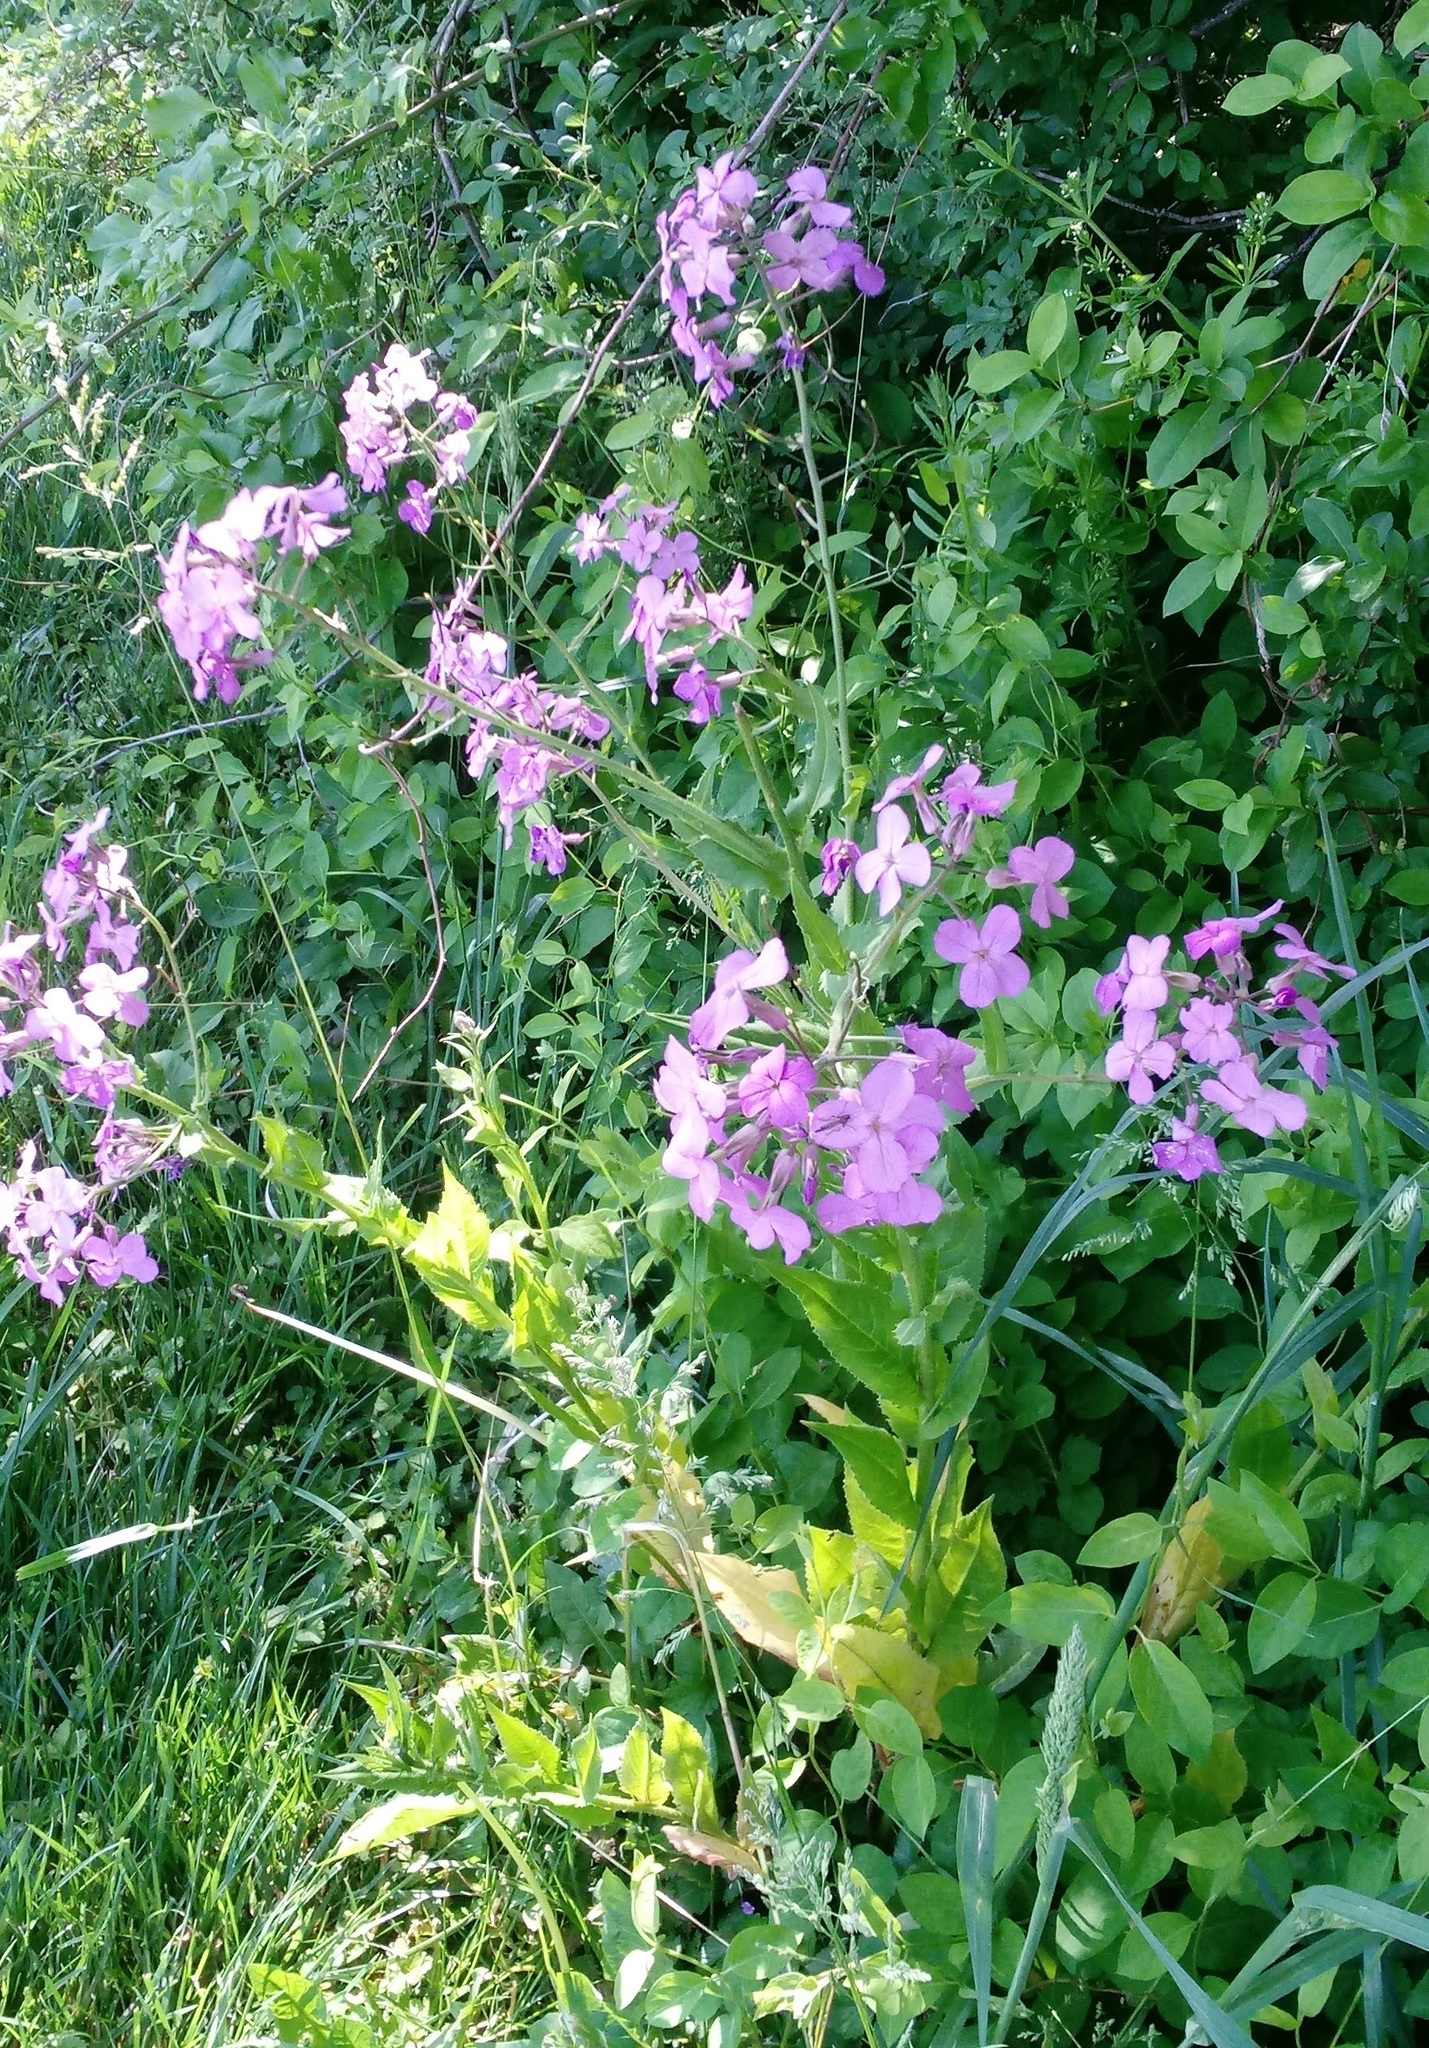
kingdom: Plantae
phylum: Tracheophyta
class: Magnoliopsida
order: Brassicales
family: Brassicaceae
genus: Hesperis
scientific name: Hesperis matronalis
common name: Dame's-violet
